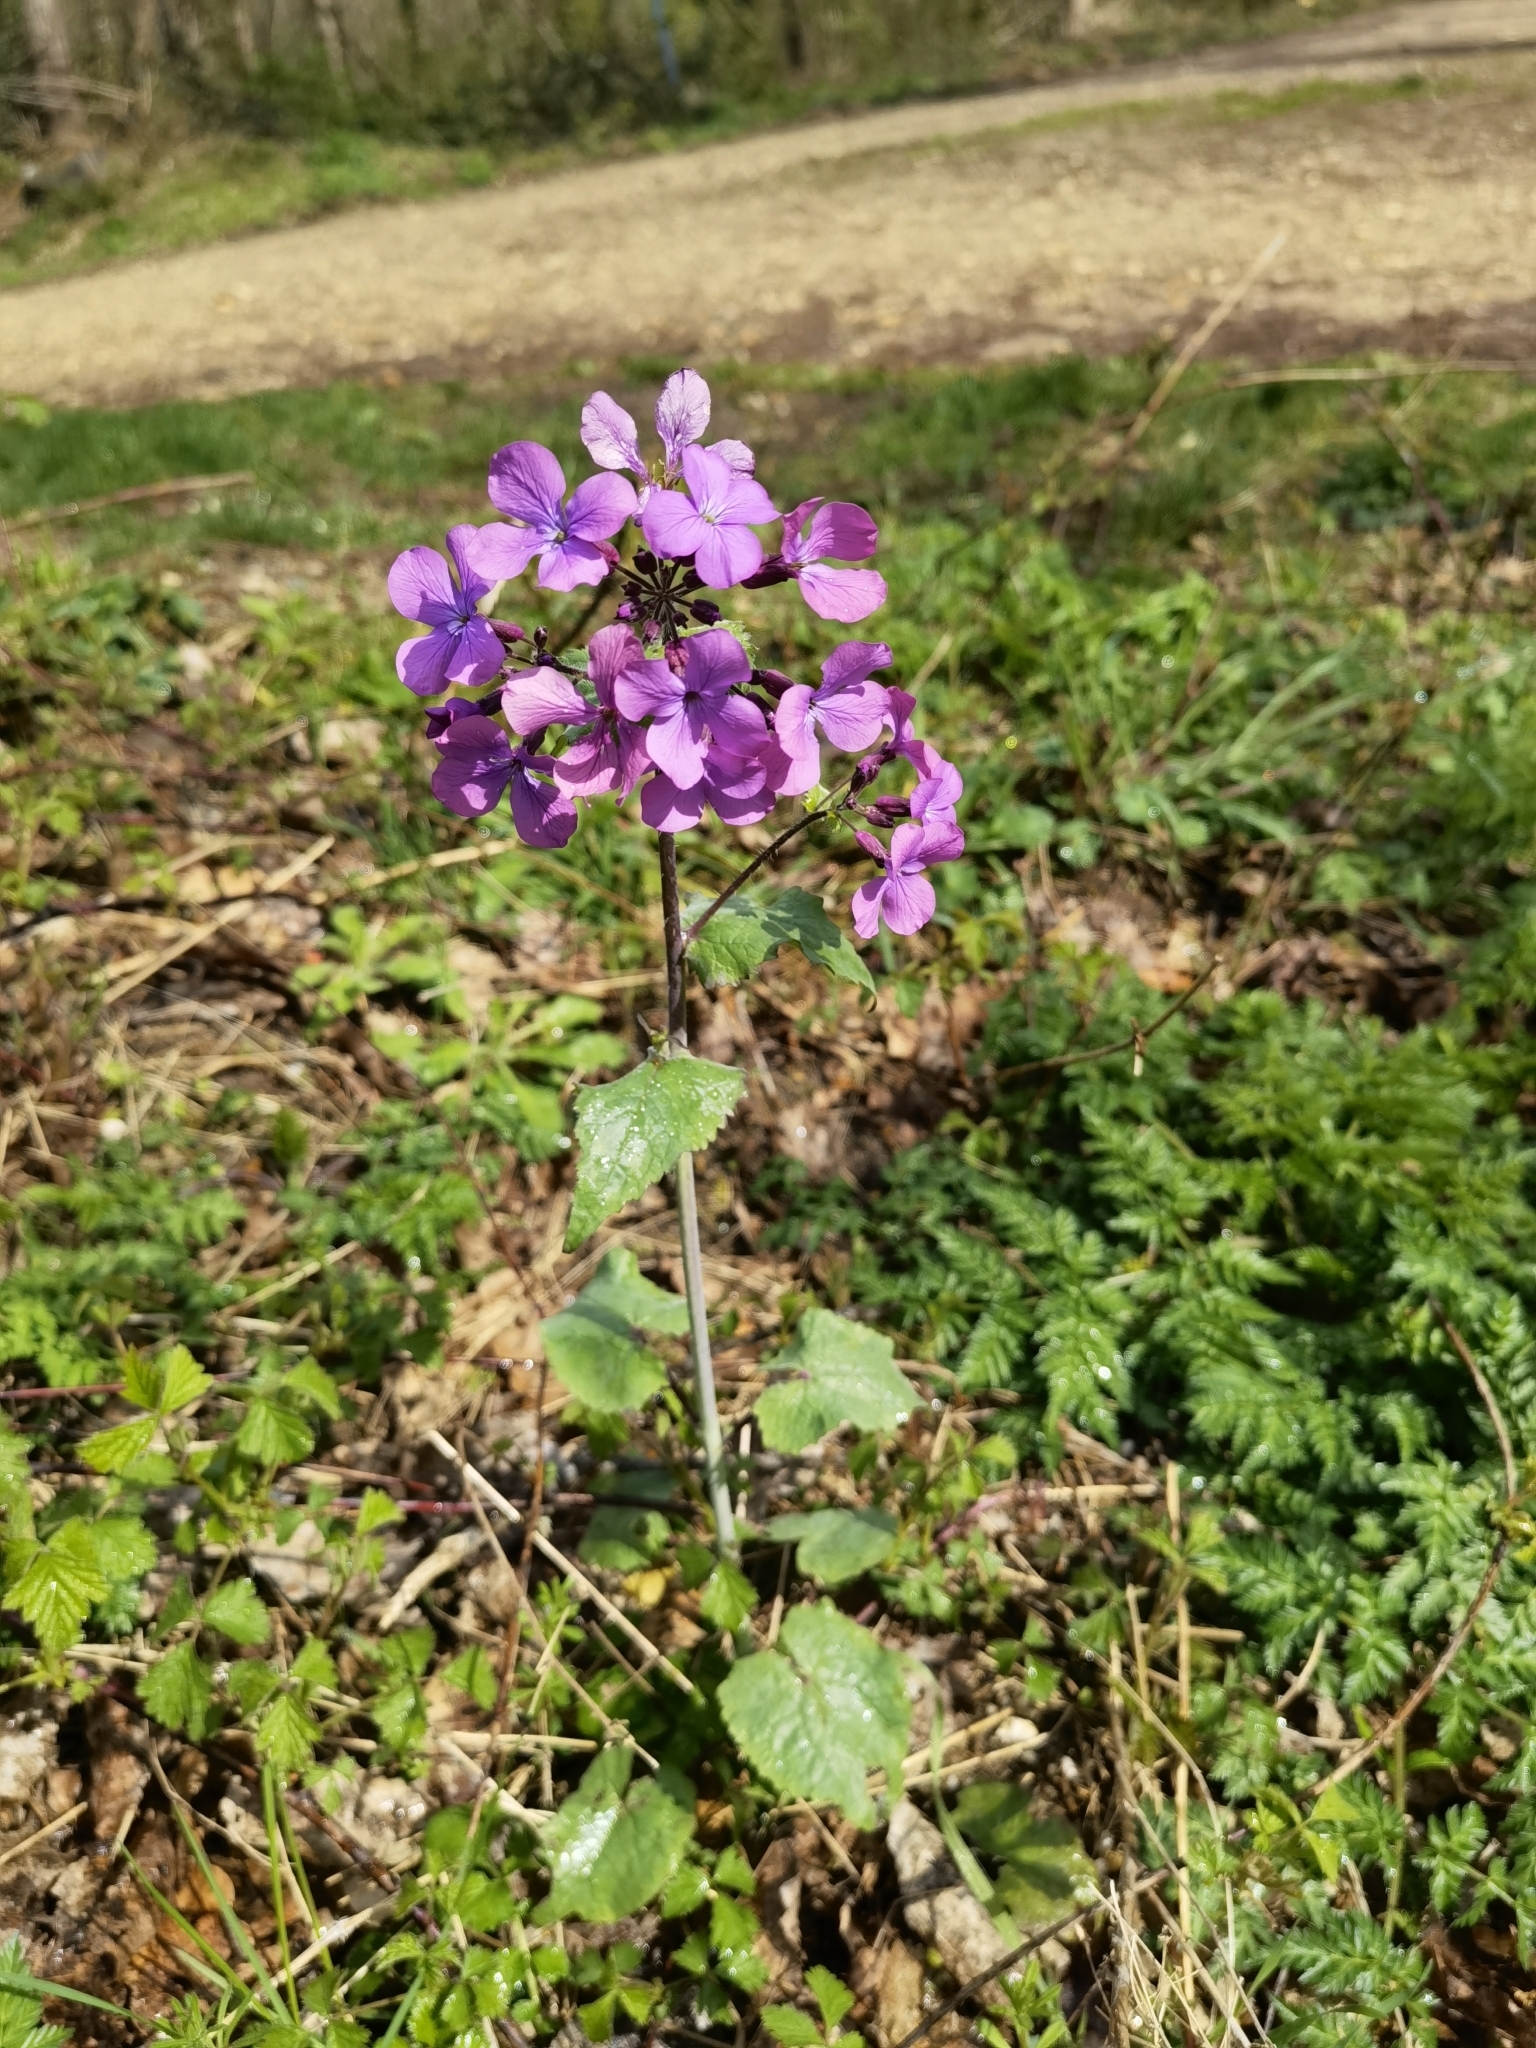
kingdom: Plantae
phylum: Tracheophyta
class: Magnoliopsida
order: Brassicales
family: Brassicaceae
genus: Lunaria
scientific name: Lunaria annua
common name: Honesty
